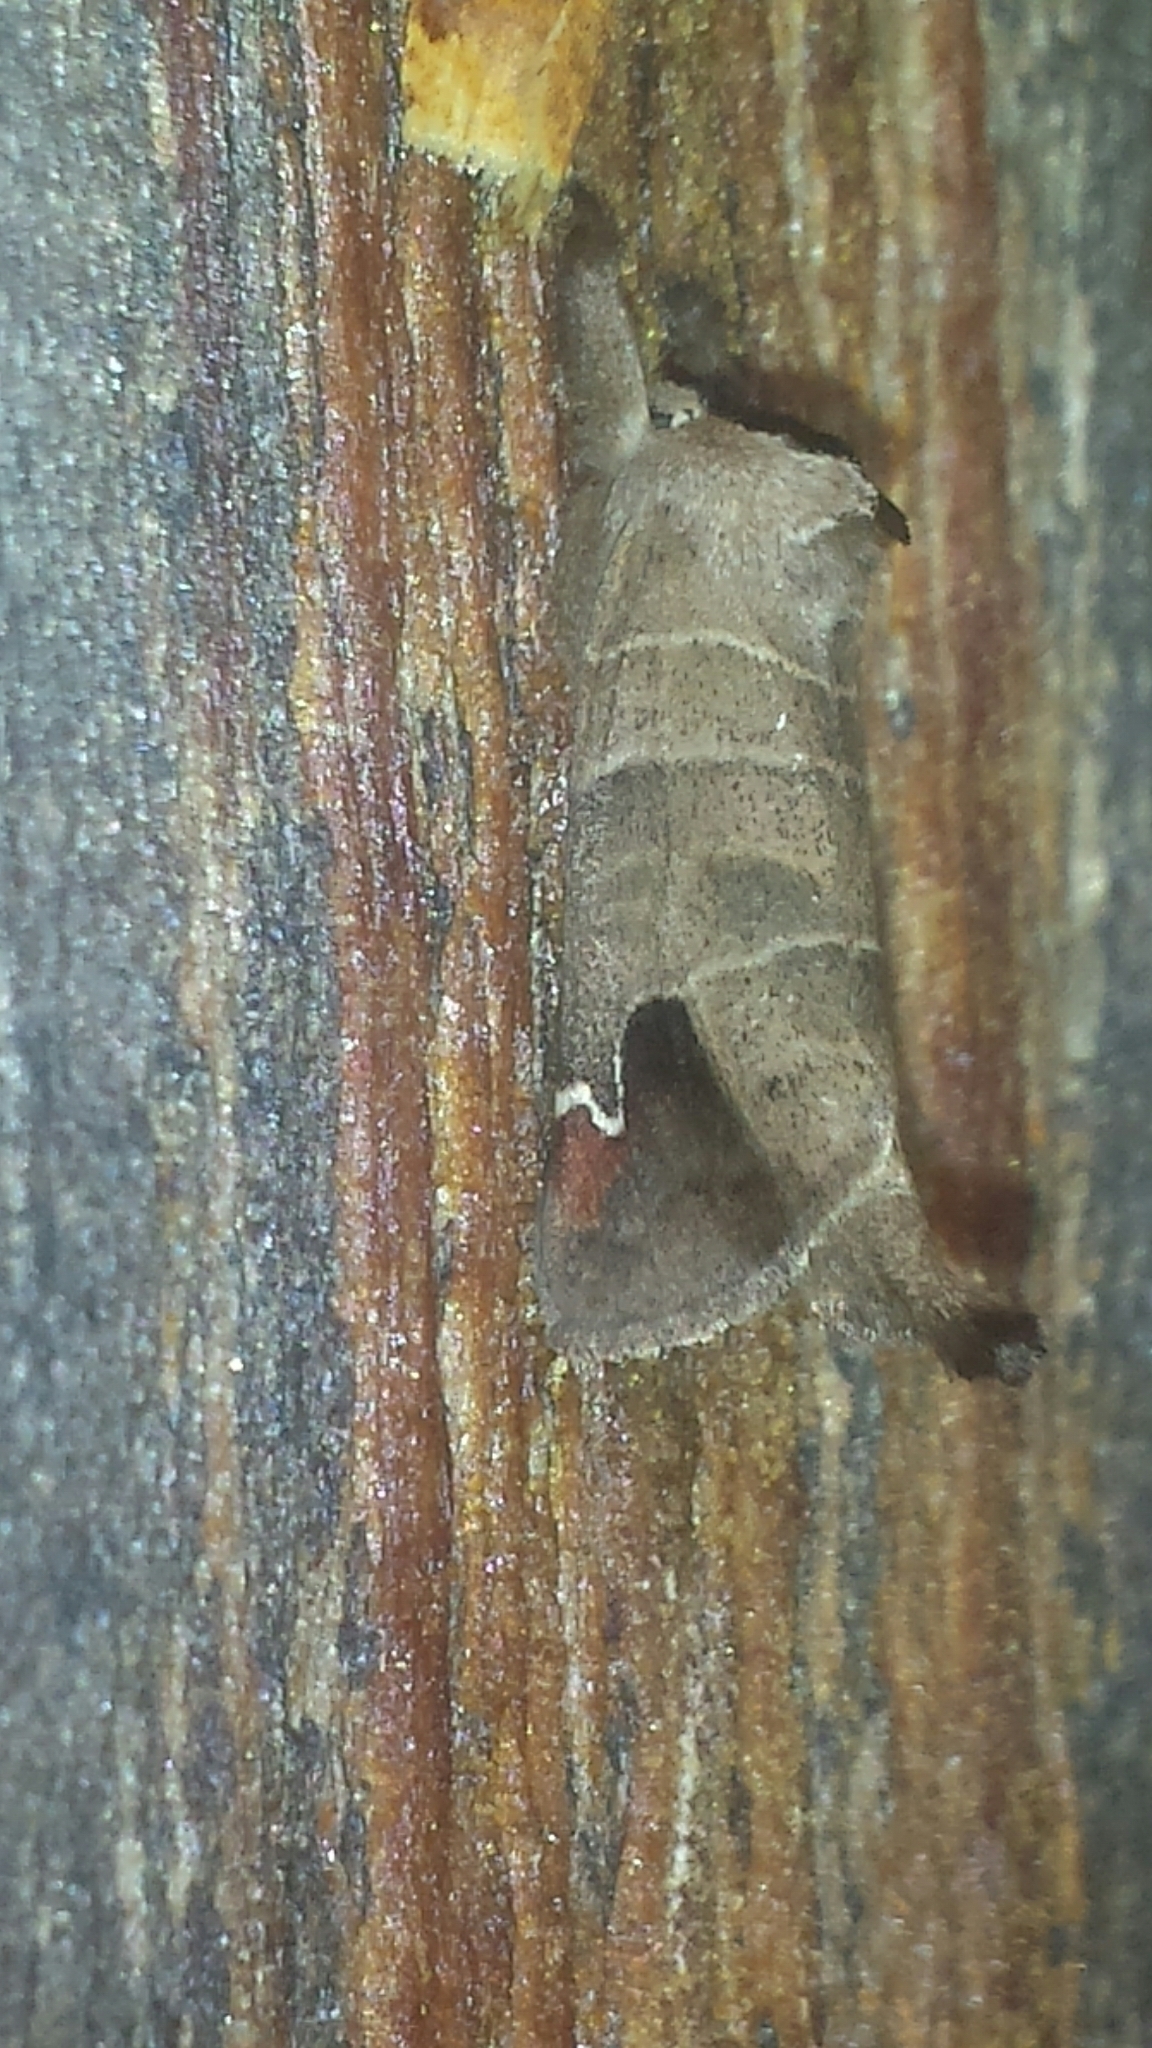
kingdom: Animalia
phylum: Arthropoda
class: Insecta
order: Lepidoptera
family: Notodontidae
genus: Clostera
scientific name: Clostera albosigma
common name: Sigmoid prominent
